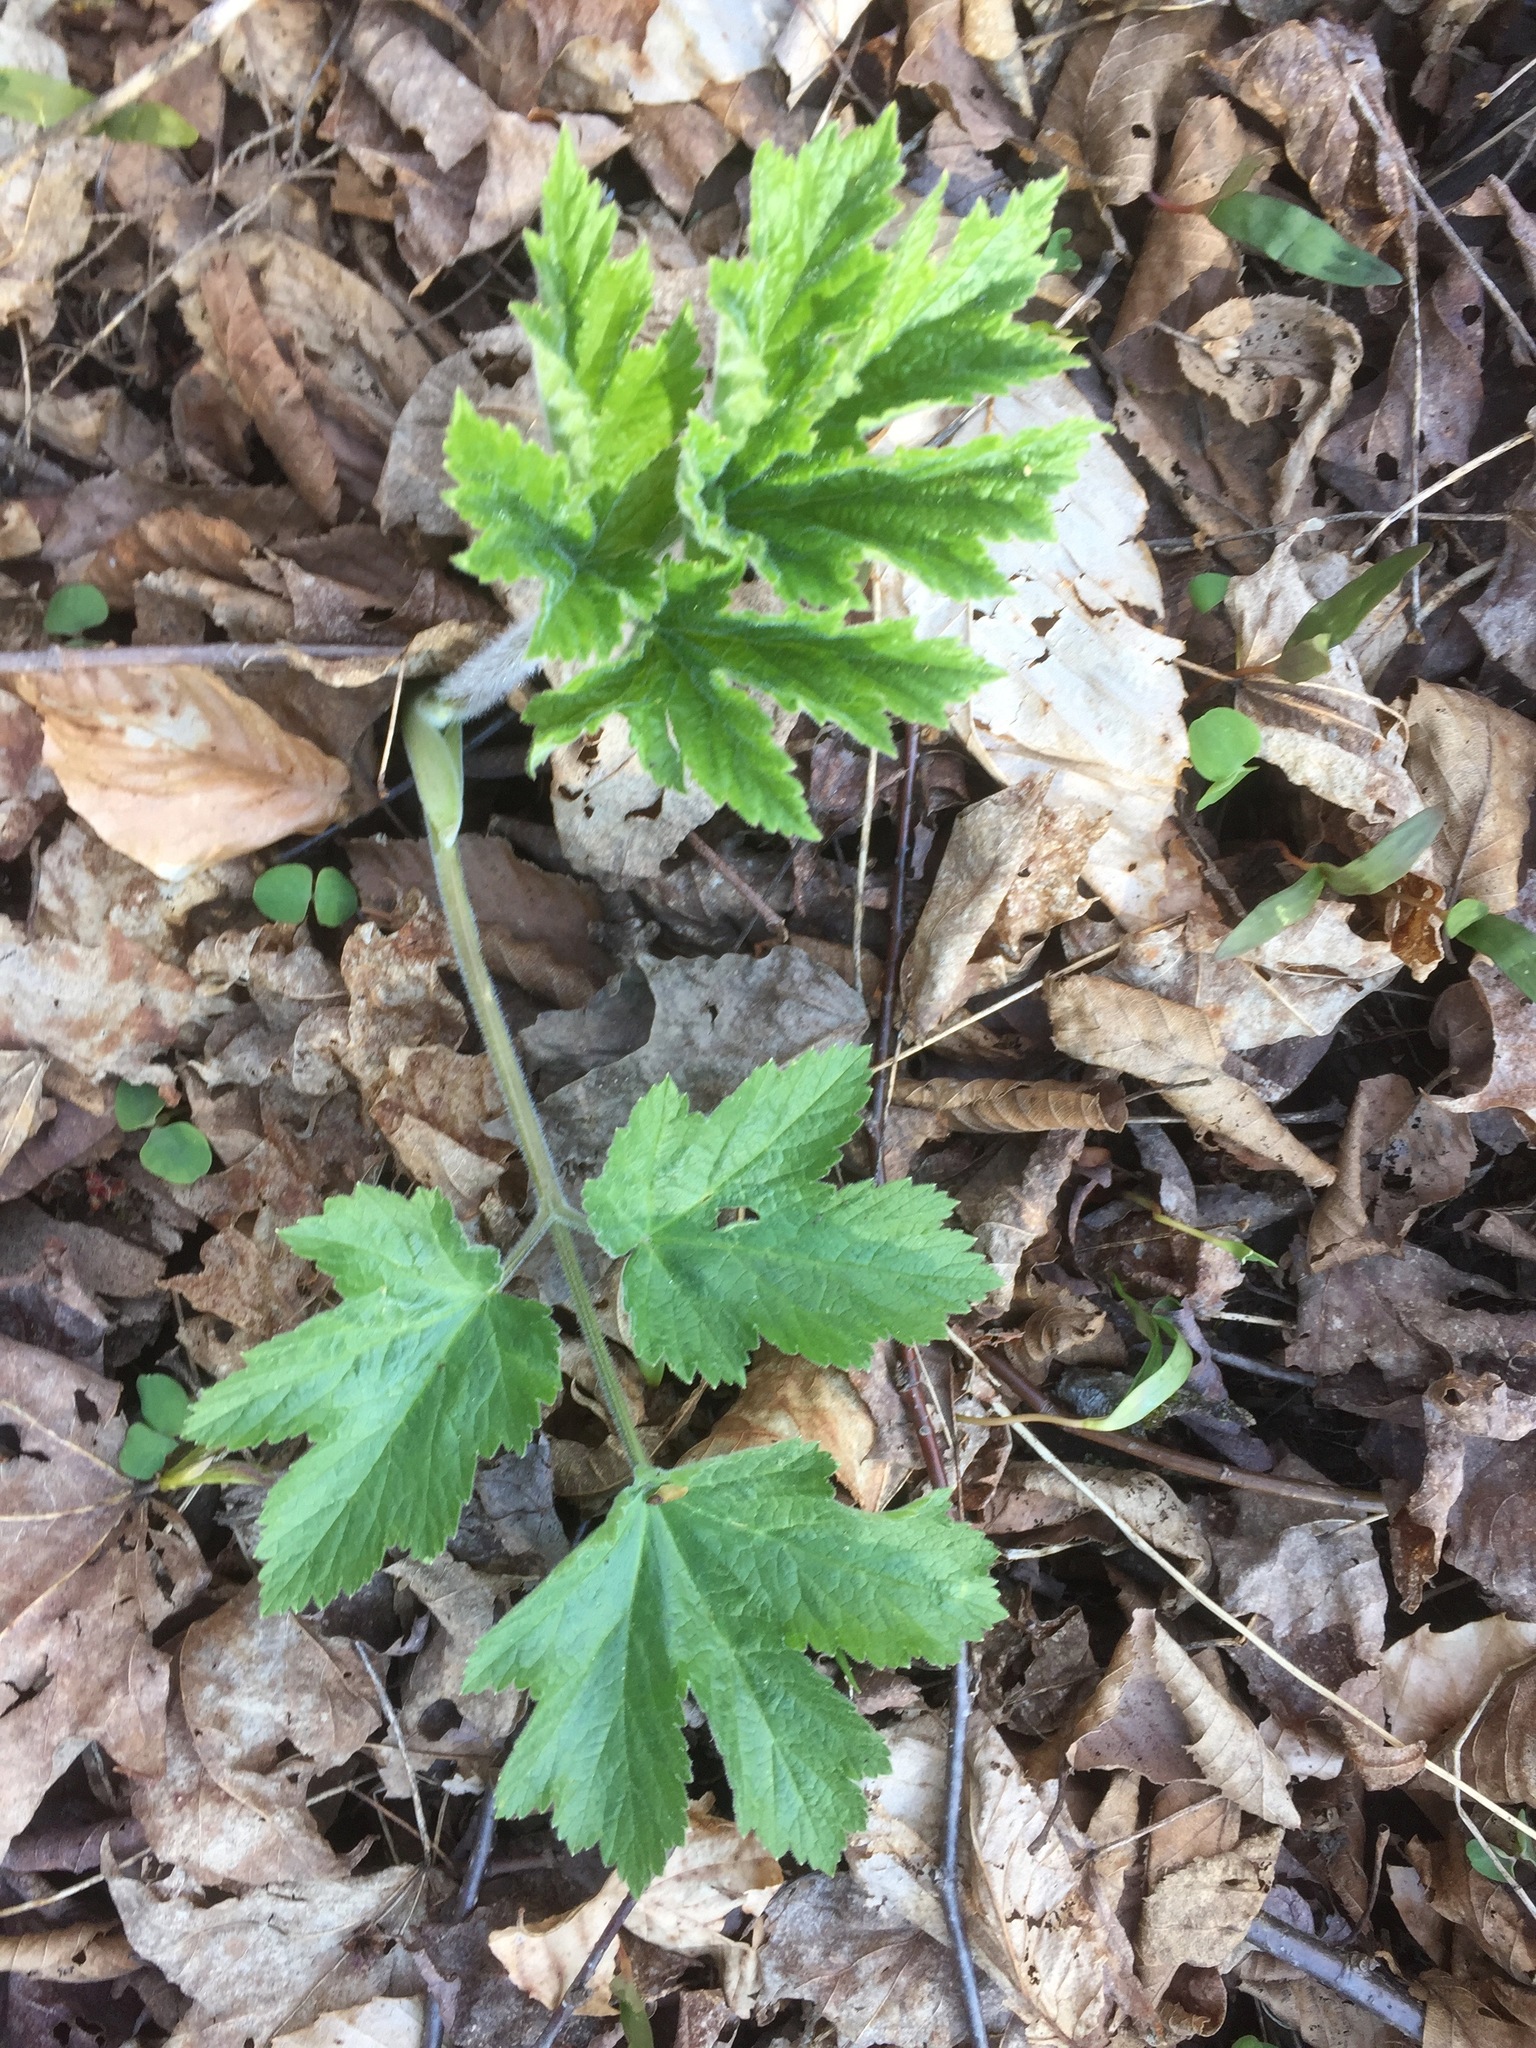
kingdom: Plantae
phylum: Tracheophyta
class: Magnoliopsida
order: Apiales
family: Apiaceae
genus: Heracleum
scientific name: Heracleum maximum
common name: American cow parsnip
